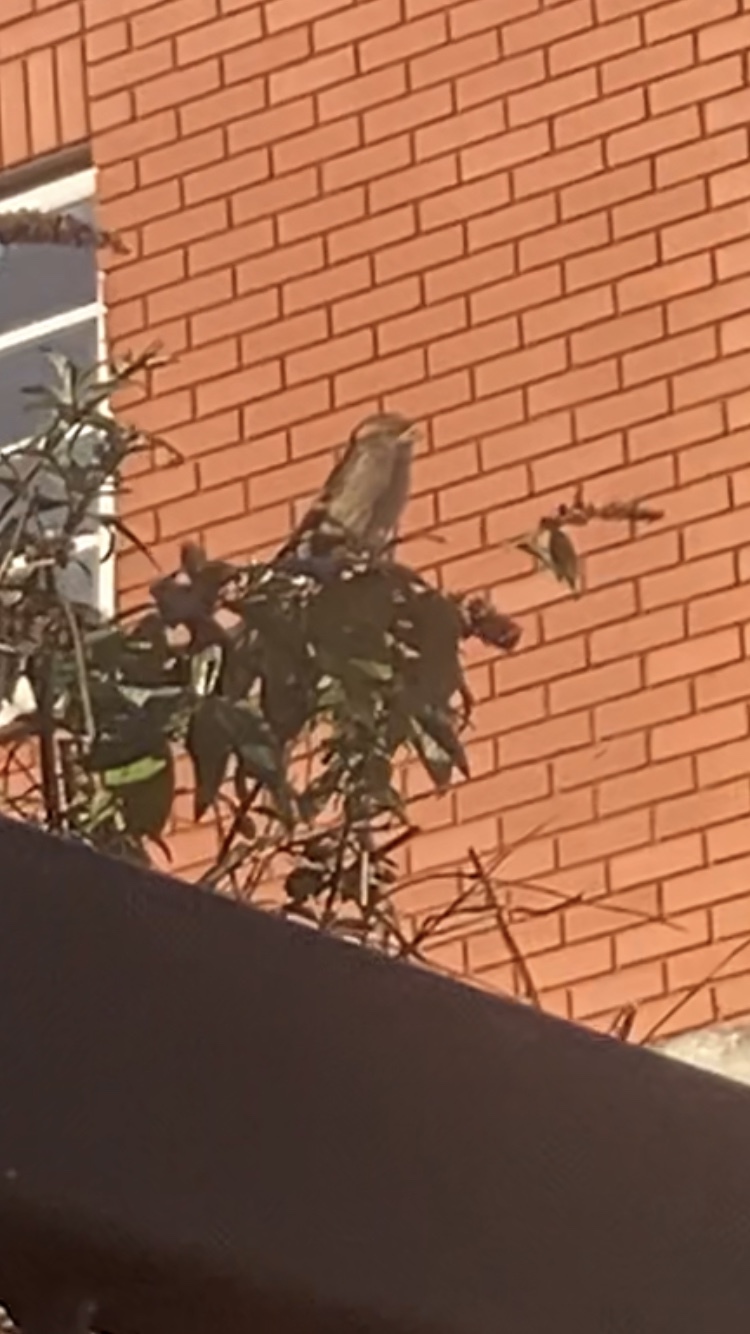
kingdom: Animalia
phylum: Chordata
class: Aves
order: Passeriformes
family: Passeridae
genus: Passer
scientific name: Passer domesticus
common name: House sparrow
